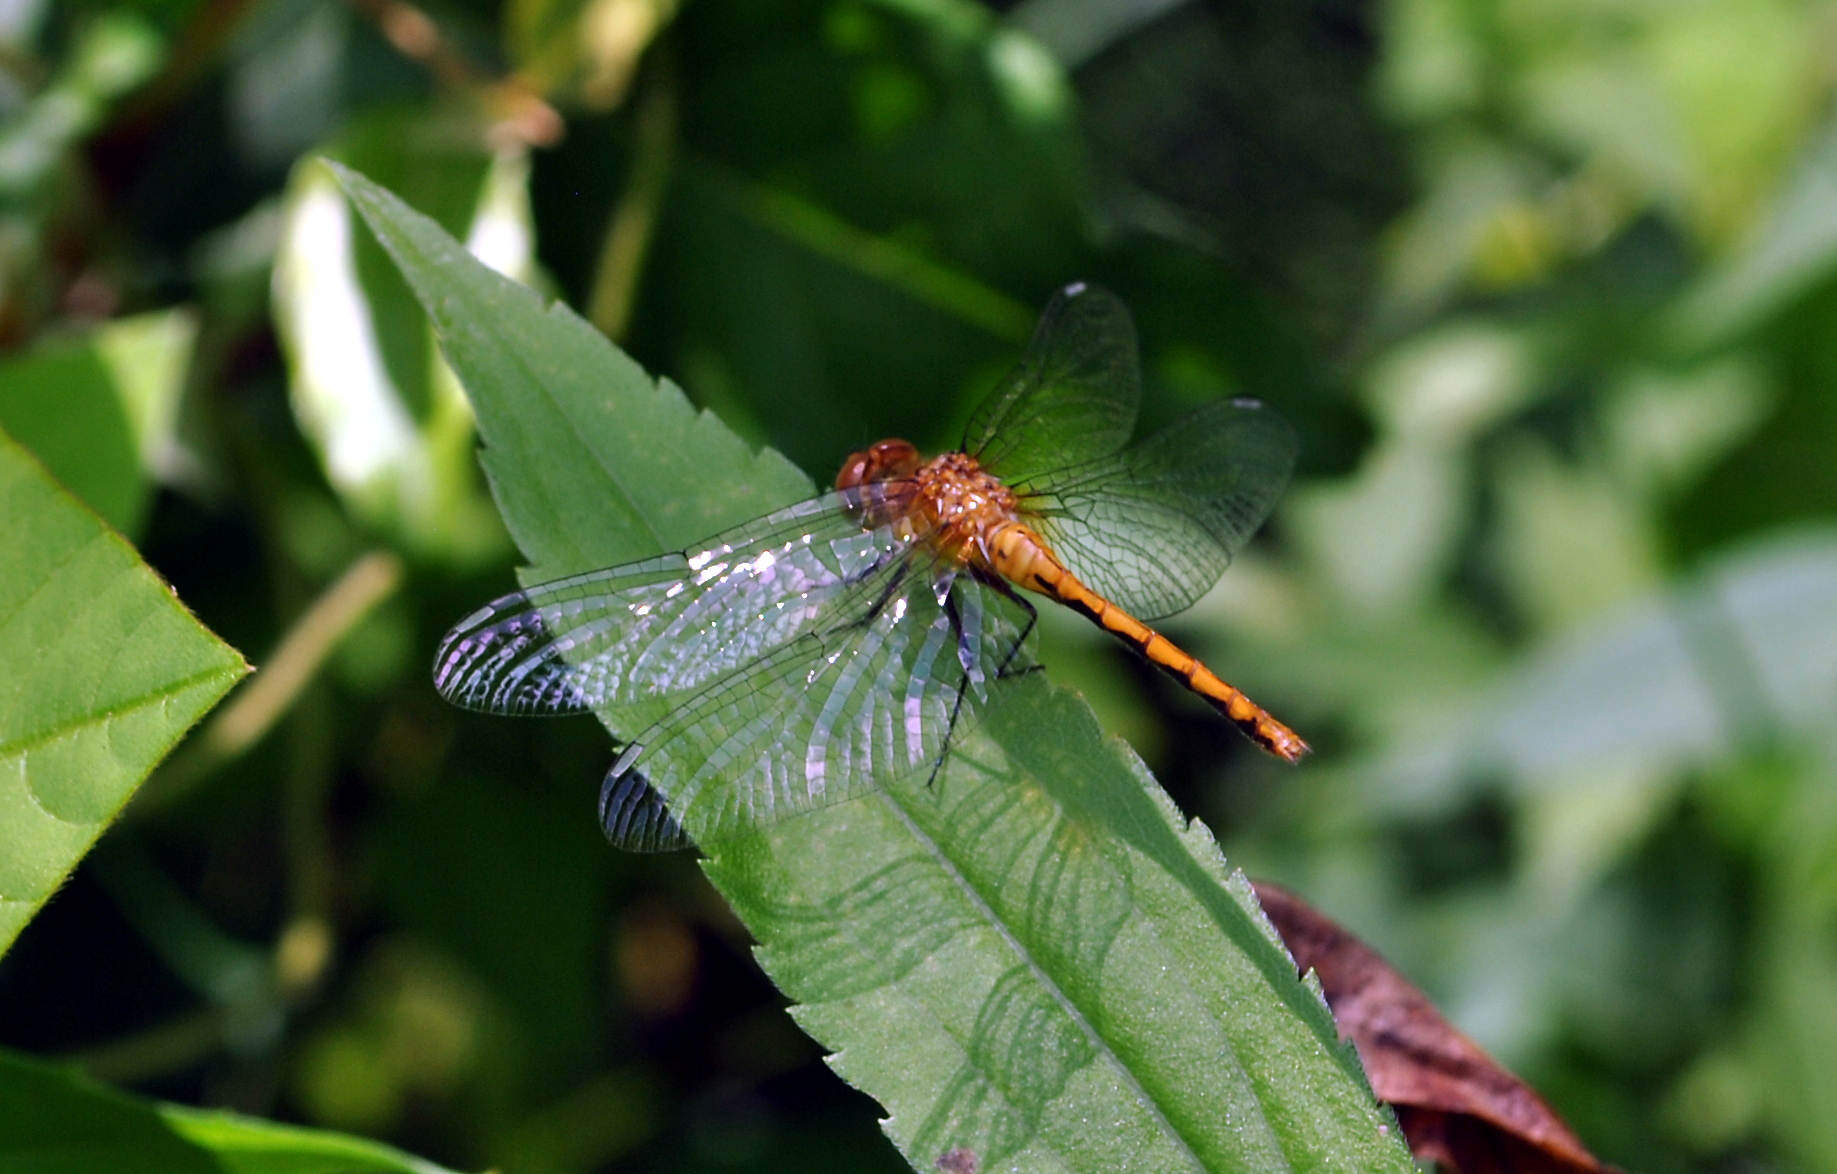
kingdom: Animalia
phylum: Arthropoda
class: Insecta
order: Odonata
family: Libellulidae
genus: Sympetrum
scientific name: Sympetrum
